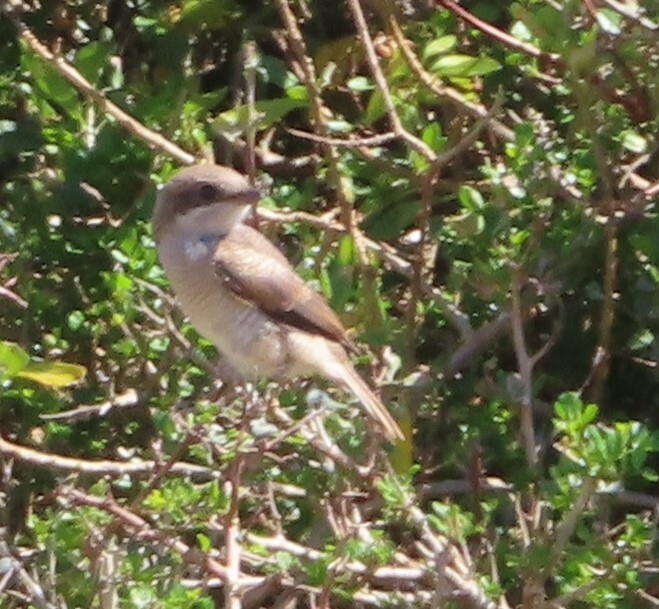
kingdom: Animalia
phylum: Chordata
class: Aves
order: Passeriformes
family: Laniidae
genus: Lanius
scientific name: Lanius collaris
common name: Southern fiscal
